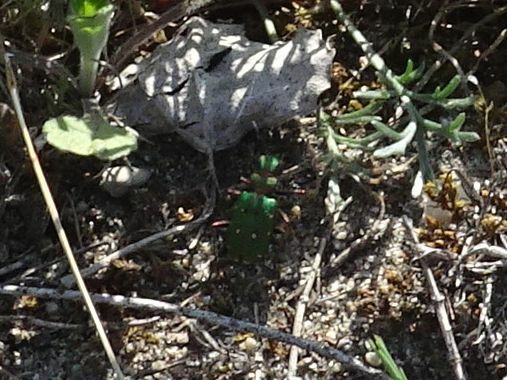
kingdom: Animalia
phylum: Arthropoda
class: Insecta
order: Coleoptera
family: Carabidae
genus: Cicindela
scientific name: Cicindela campestris
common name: Common tiger beetle
